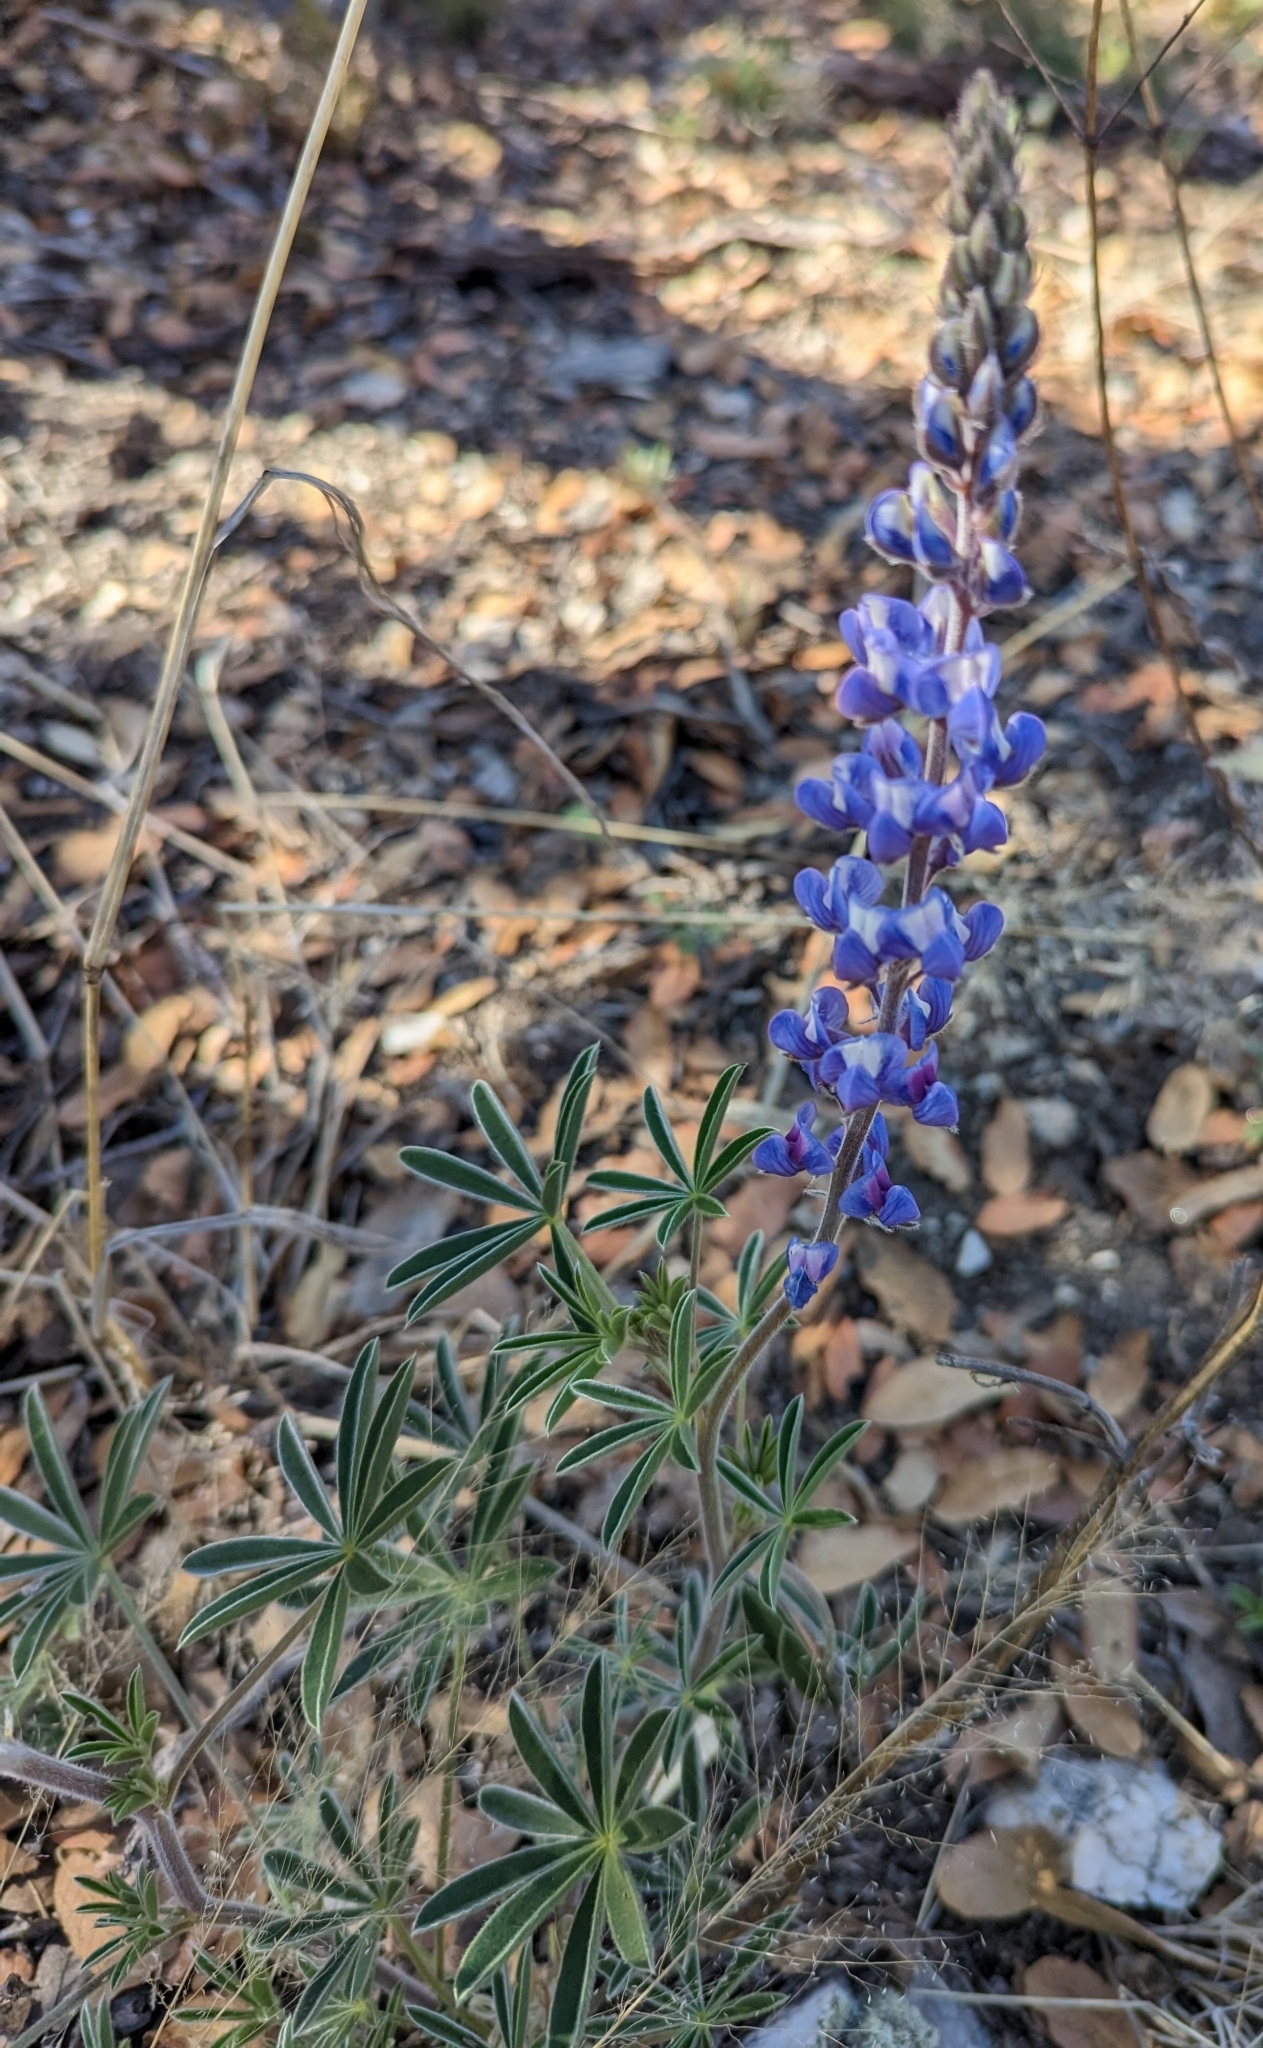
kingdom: Plantae
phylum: Tracheophyta
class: Magnoliopsida
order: Fabales
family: Fabaceae
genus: Lupinus
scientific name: Lupinus argenteus
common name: Silvery lupine
